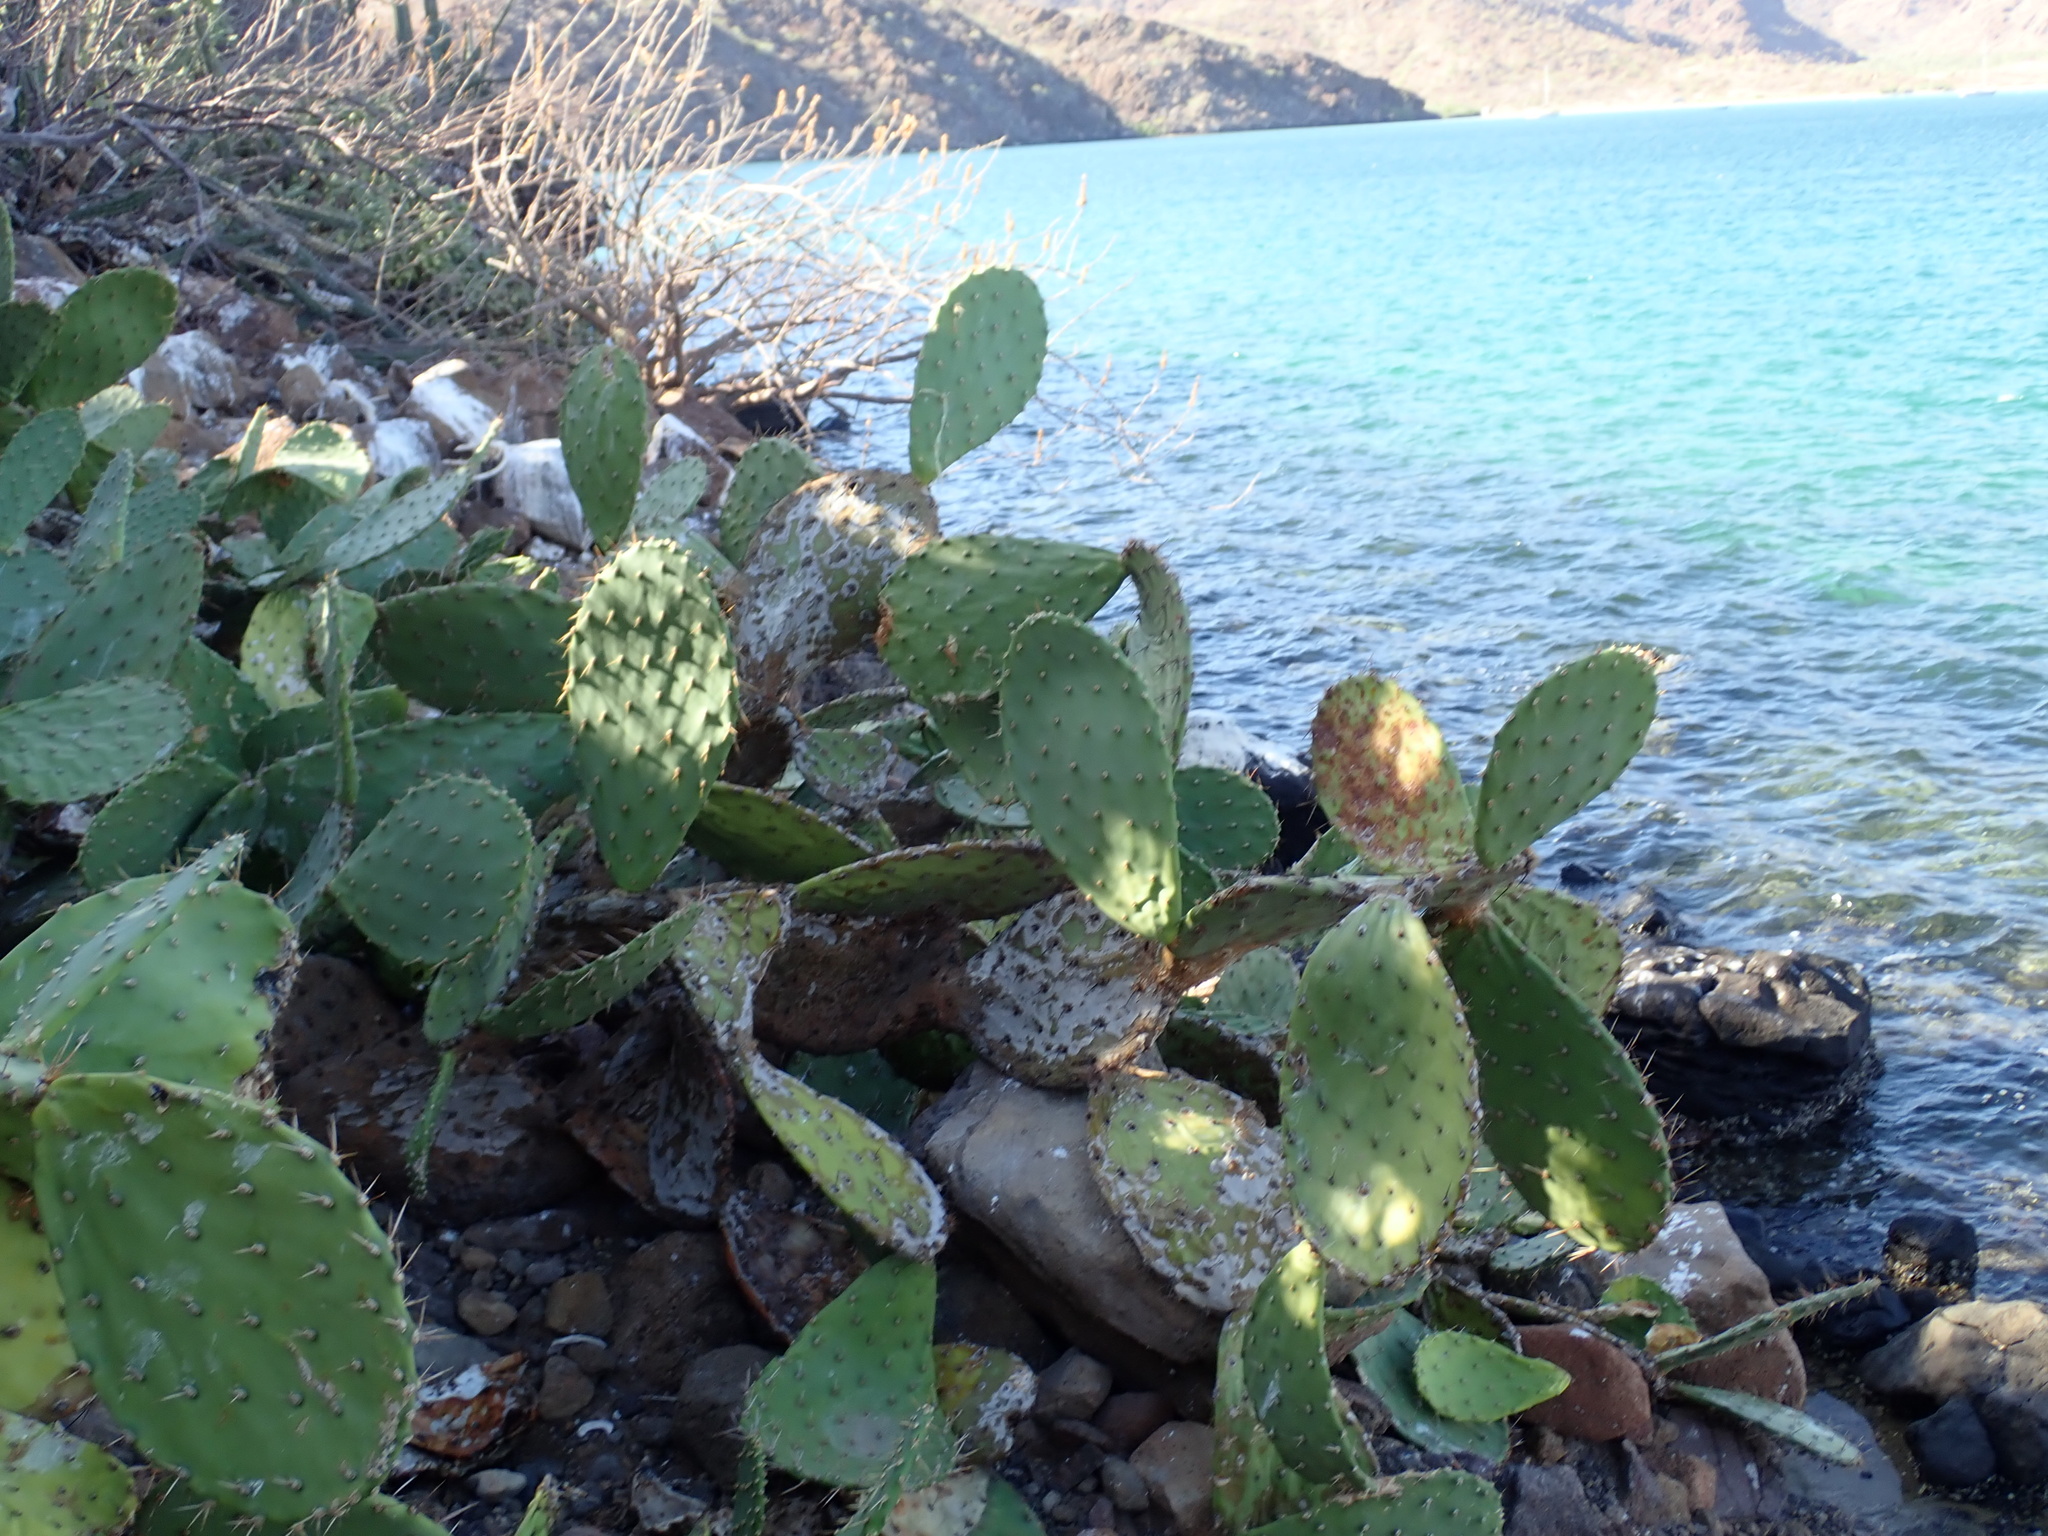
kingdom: Plantae
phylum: Tracheophyta
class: Magnoliopsida
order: Caryophyllales
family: Cactaceae
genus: Opuntia
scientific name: Opuntia tapona
